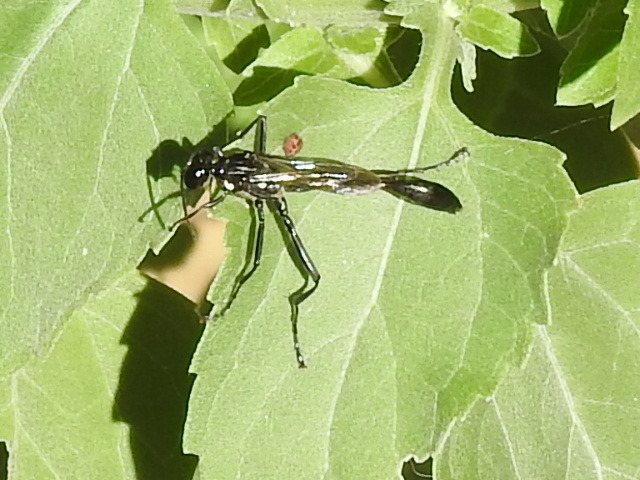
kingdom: Animalia
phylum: Arthropoda
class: Insecta
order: Hymenoptera
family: Sphecidae
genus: Eremnophila
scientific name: Eremnophila aureonotata
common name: Gold-marked thread-waisted wasp
